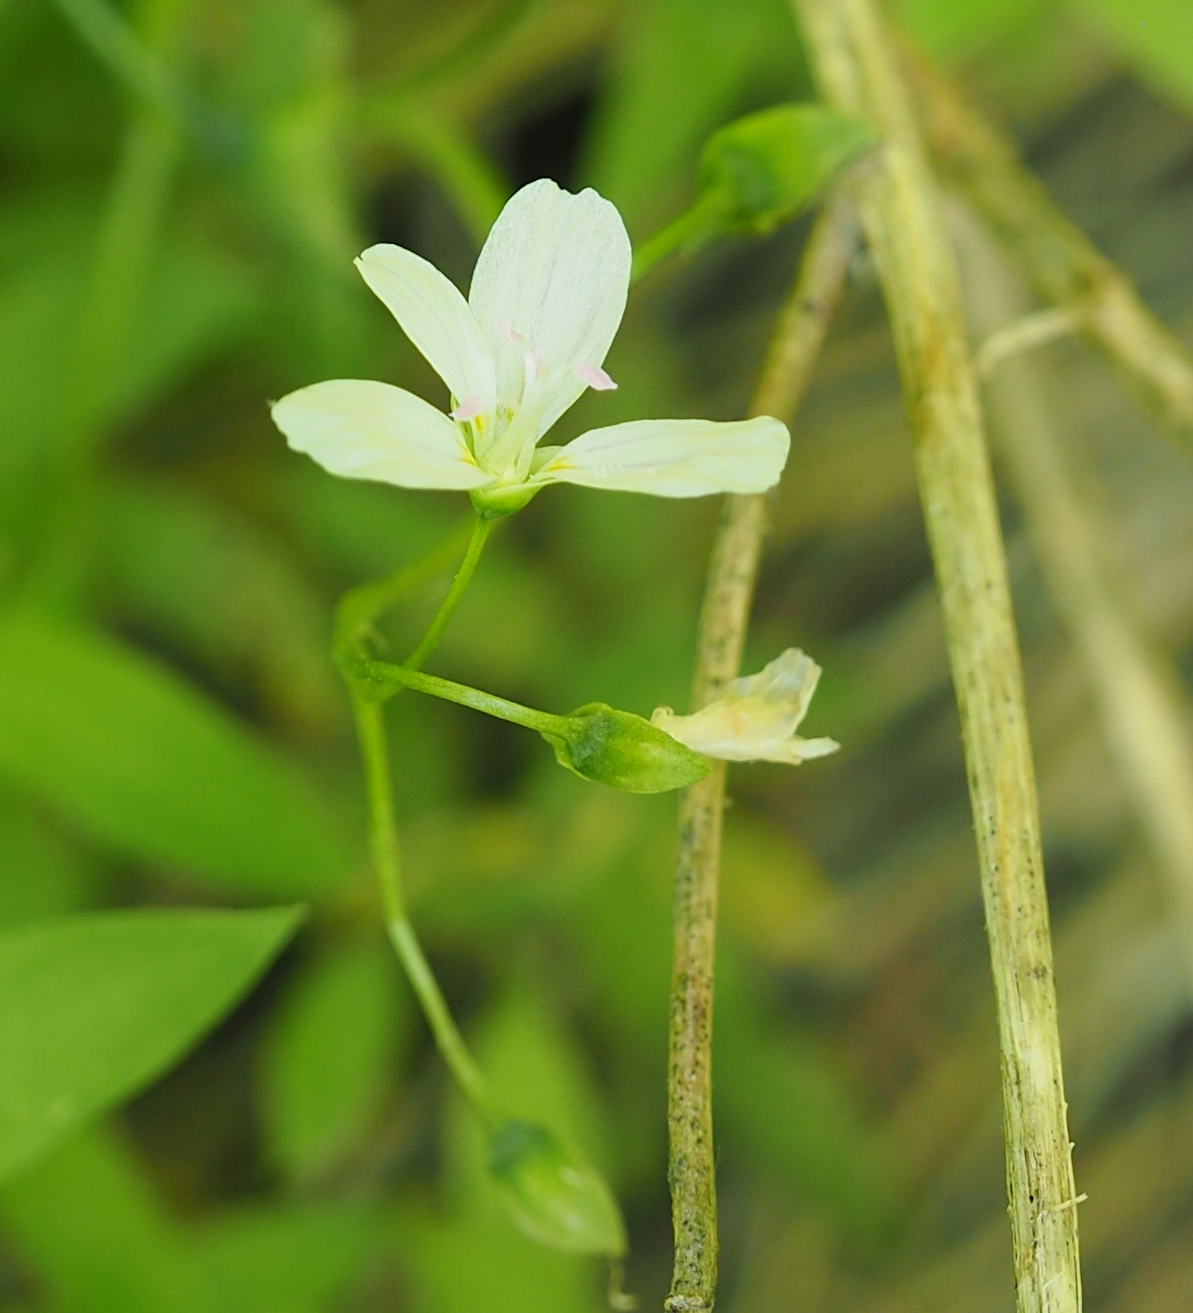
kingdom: Plantae
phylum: Tracheophyta
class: Magnoliopsida
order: Caryophyllales
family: Montiaceae
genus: Claytonia
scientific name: Claytonia virginica
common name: Virginia springbeauty
